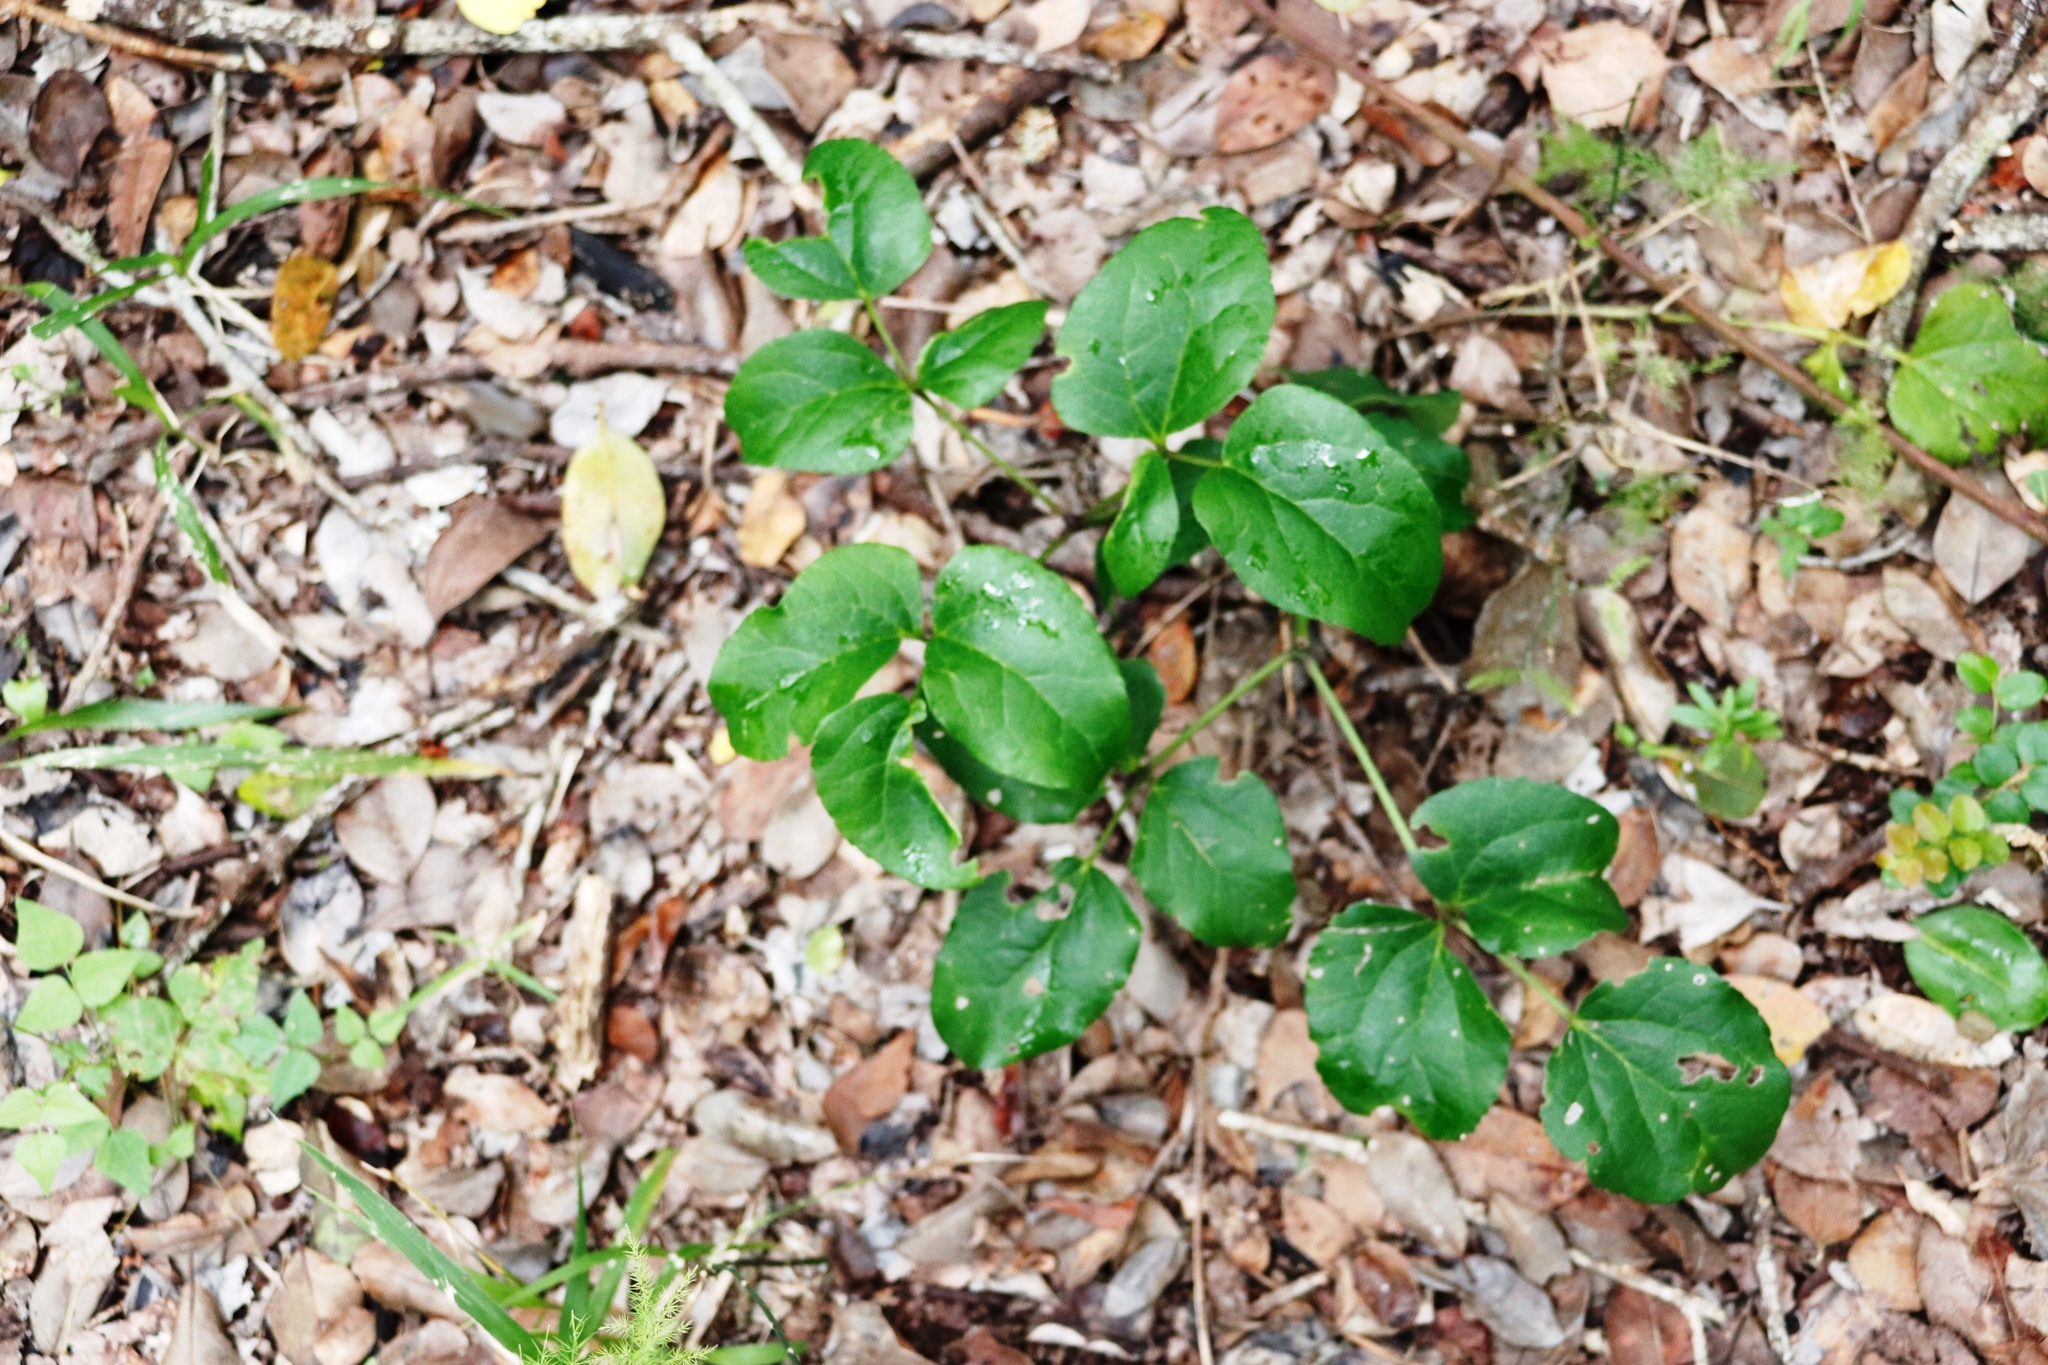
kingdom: Plantae
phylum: Tracheophyta
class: Magnoliopsida
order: Ranunculales
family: Ranunculaceae
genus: Knowltonia
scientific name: Knowltonia vesicatoria
